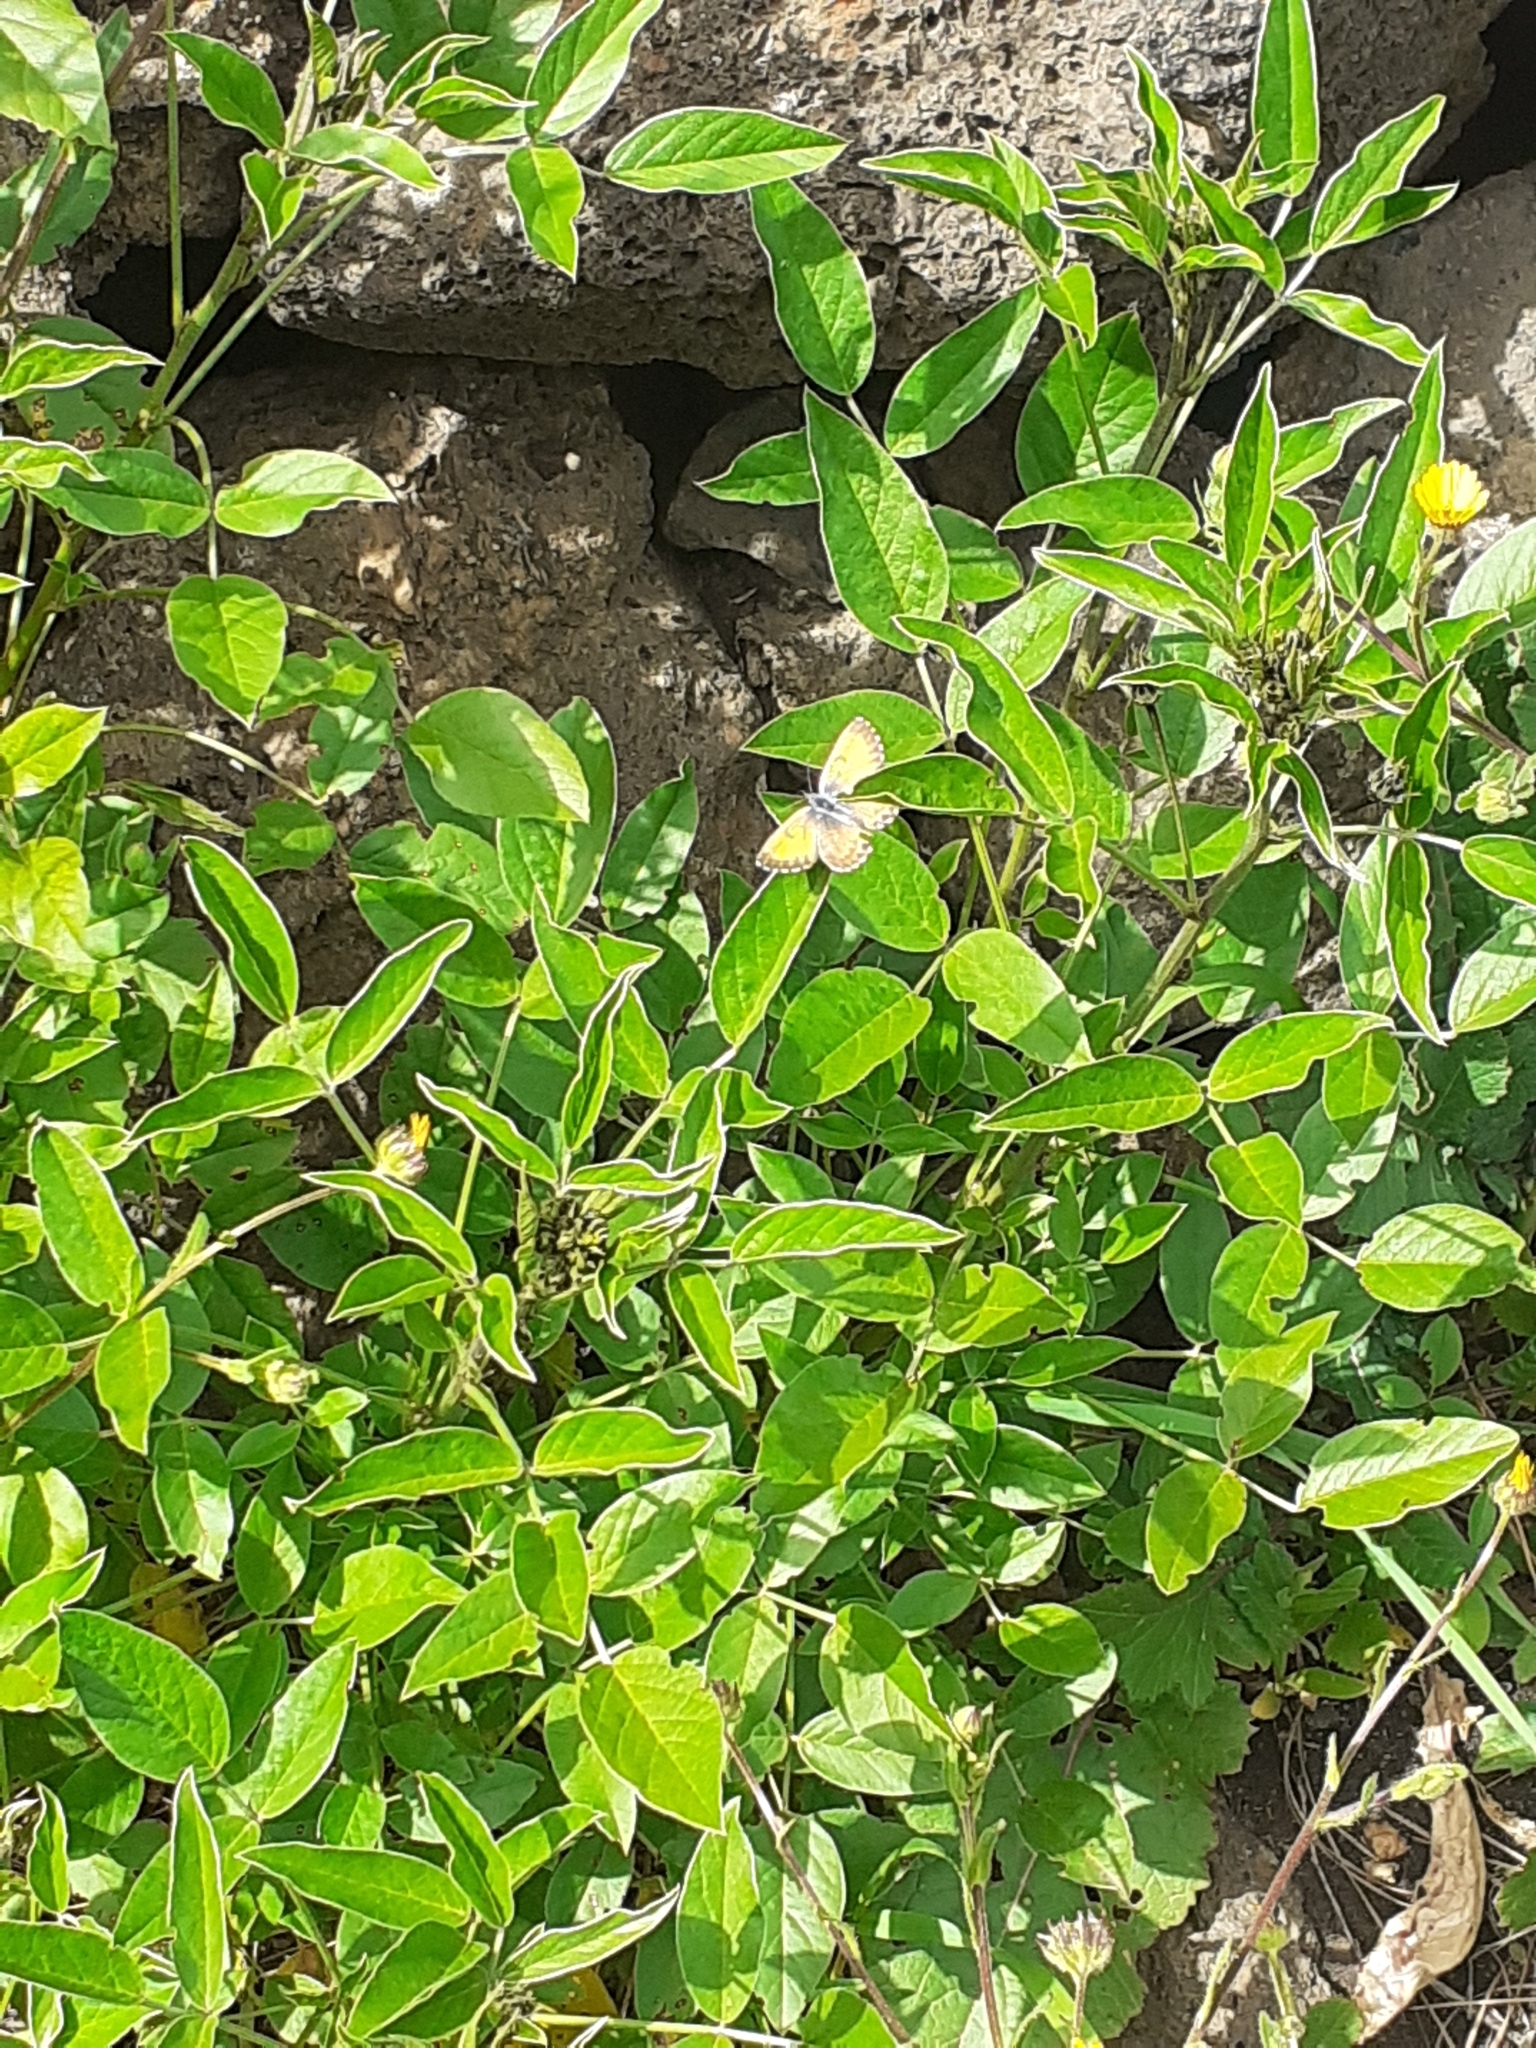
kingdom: Animalia
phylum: Arthropoda
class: Insecta
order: Lepidoptera
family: Lycaenidae
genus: Cyclyrius
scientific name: Cyclyrius webbianus
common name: Canary blue
